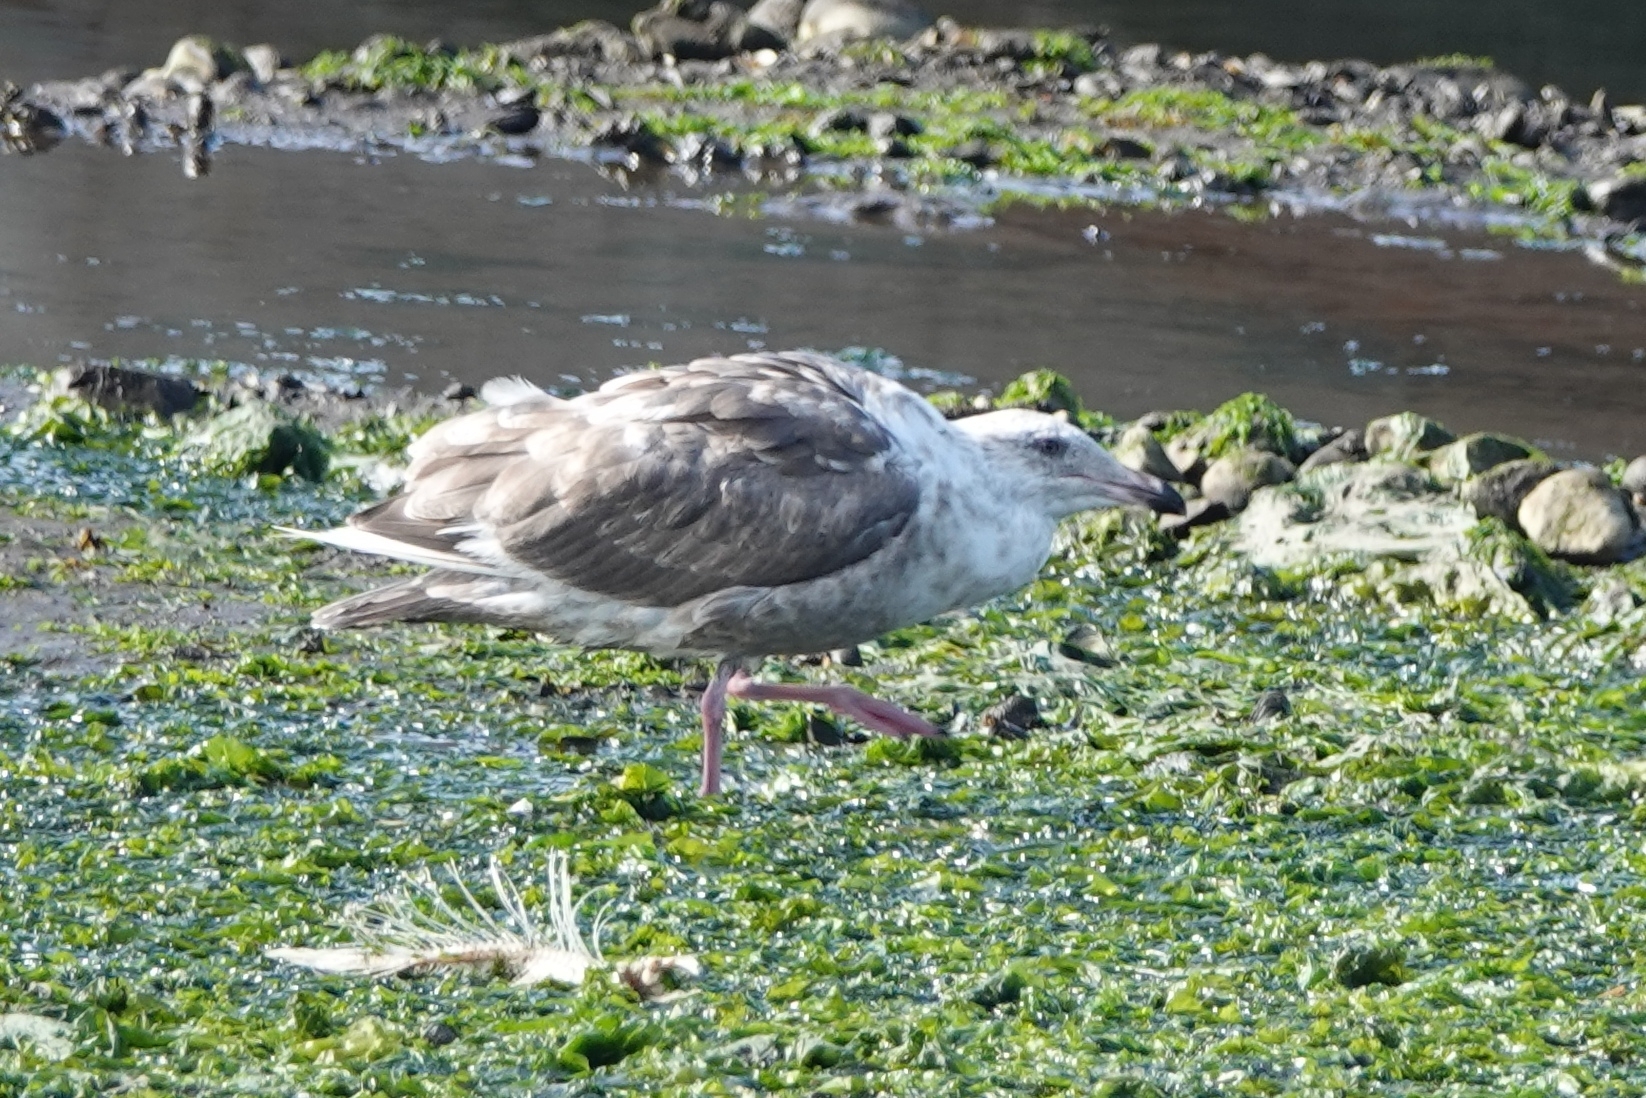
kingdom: Animalia
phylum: Chordata
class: Aves
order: Charadriiformes
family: Laridae
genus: Larus
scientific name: Larus schistisagus
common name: Slaty-backed gull
